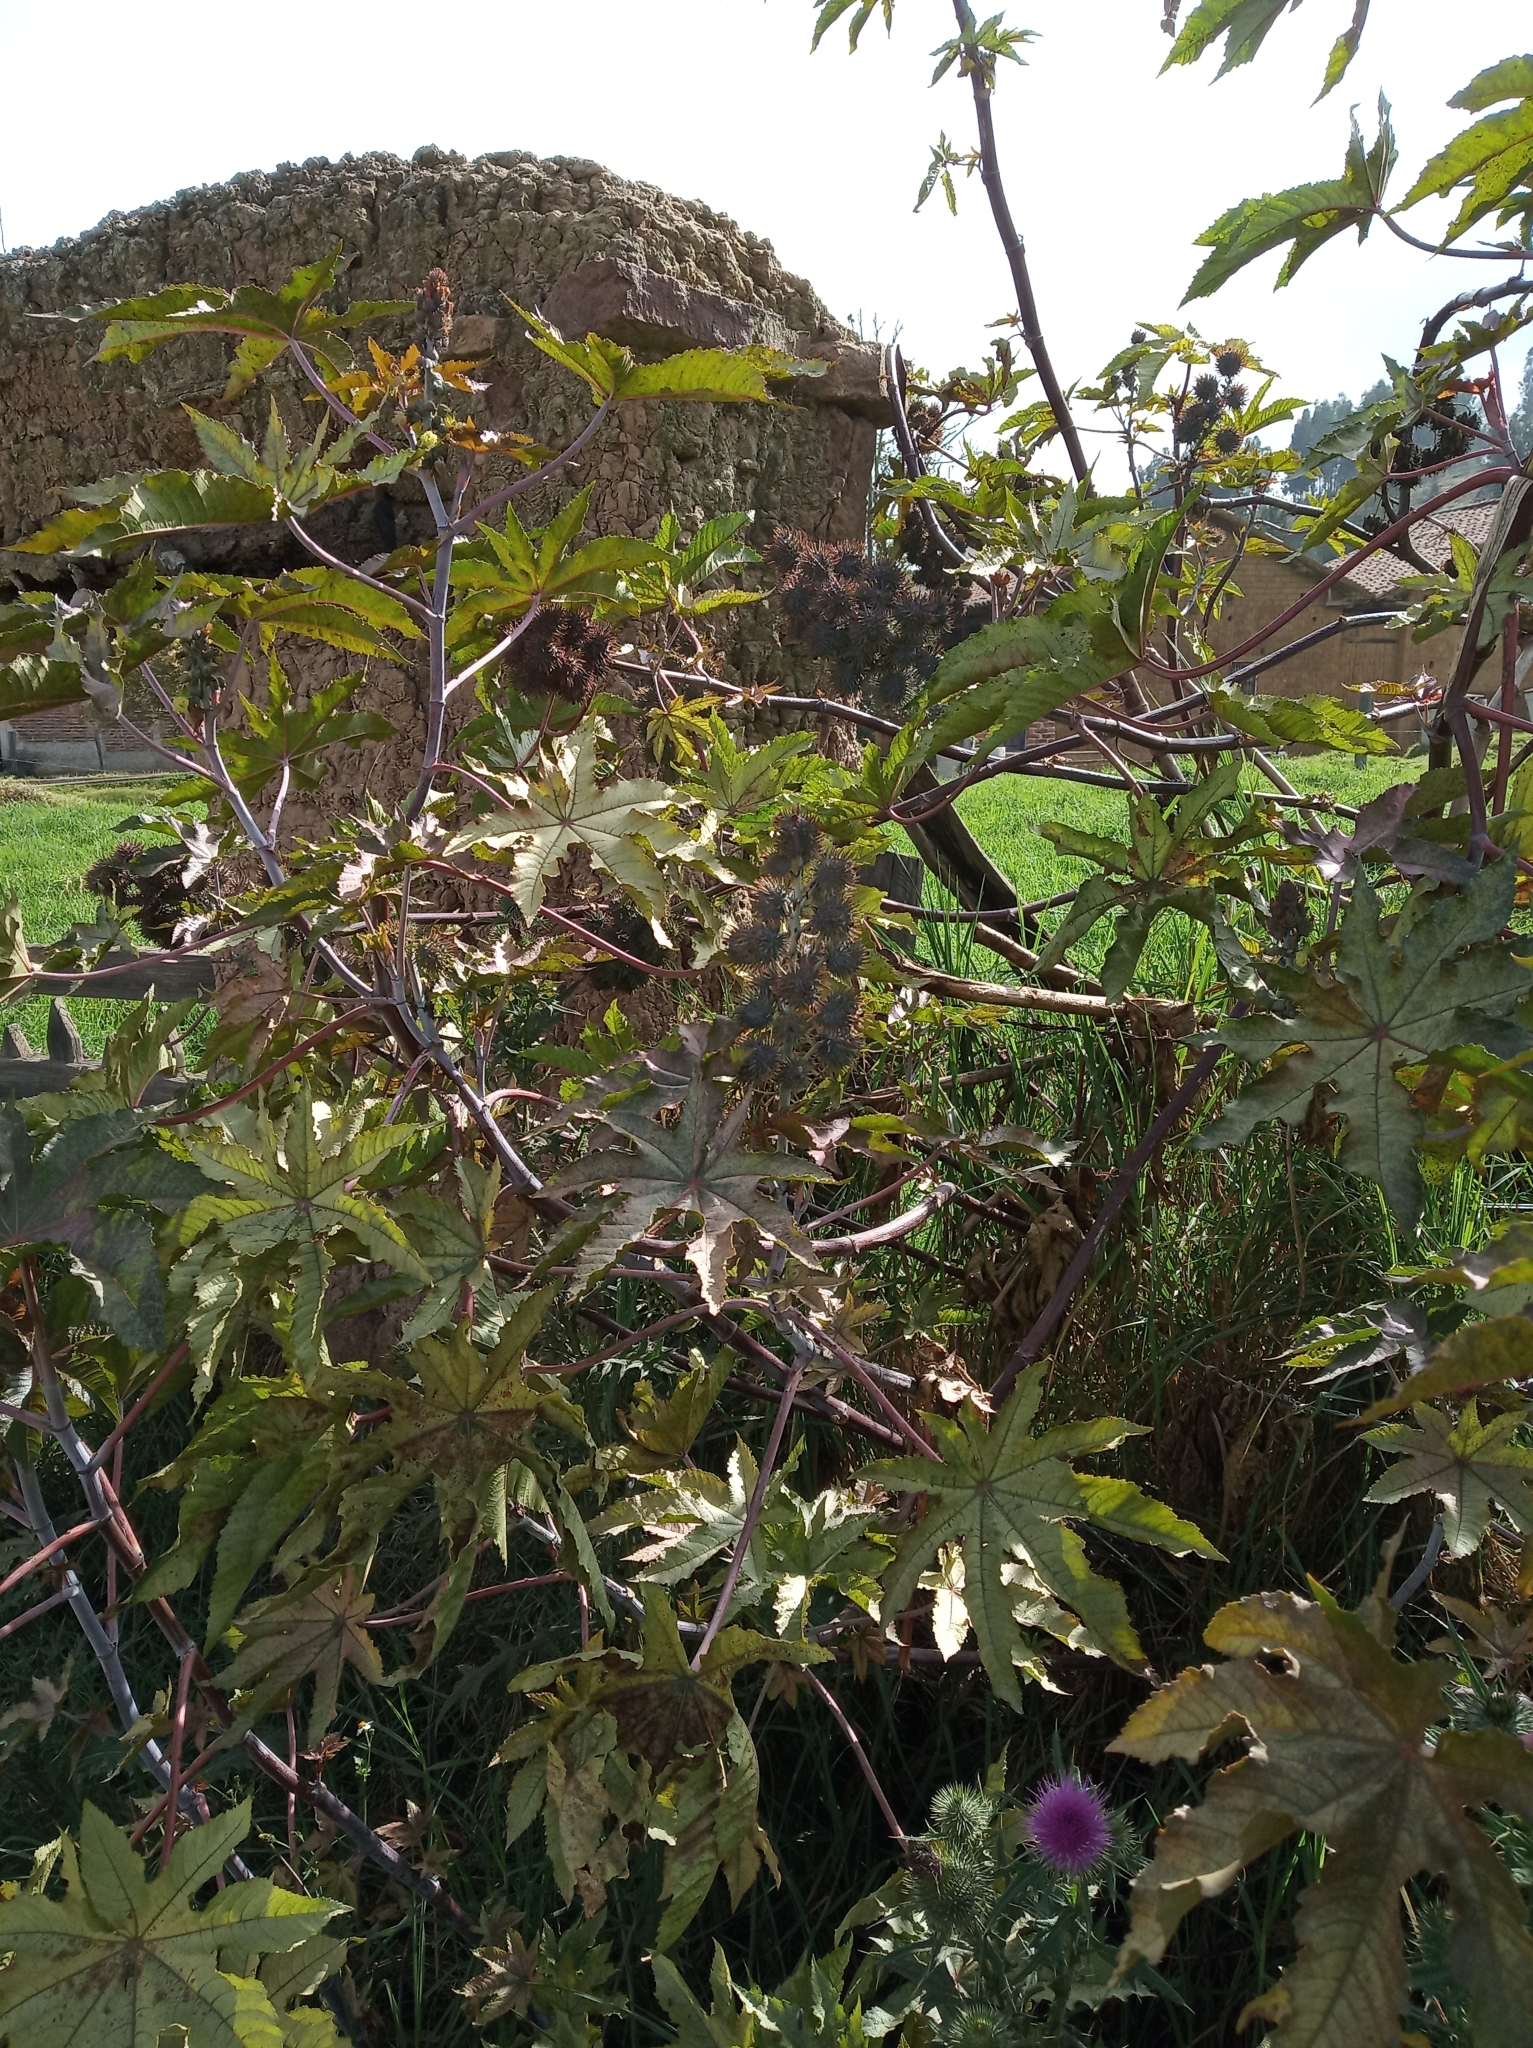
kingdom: Plantae
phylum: Tracheophyta
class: Magnoliopsida
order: Malpighiales
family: Euphorbiaceae
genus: Ricinus
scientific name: Ricinus communis
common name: Castor-oil-plant
